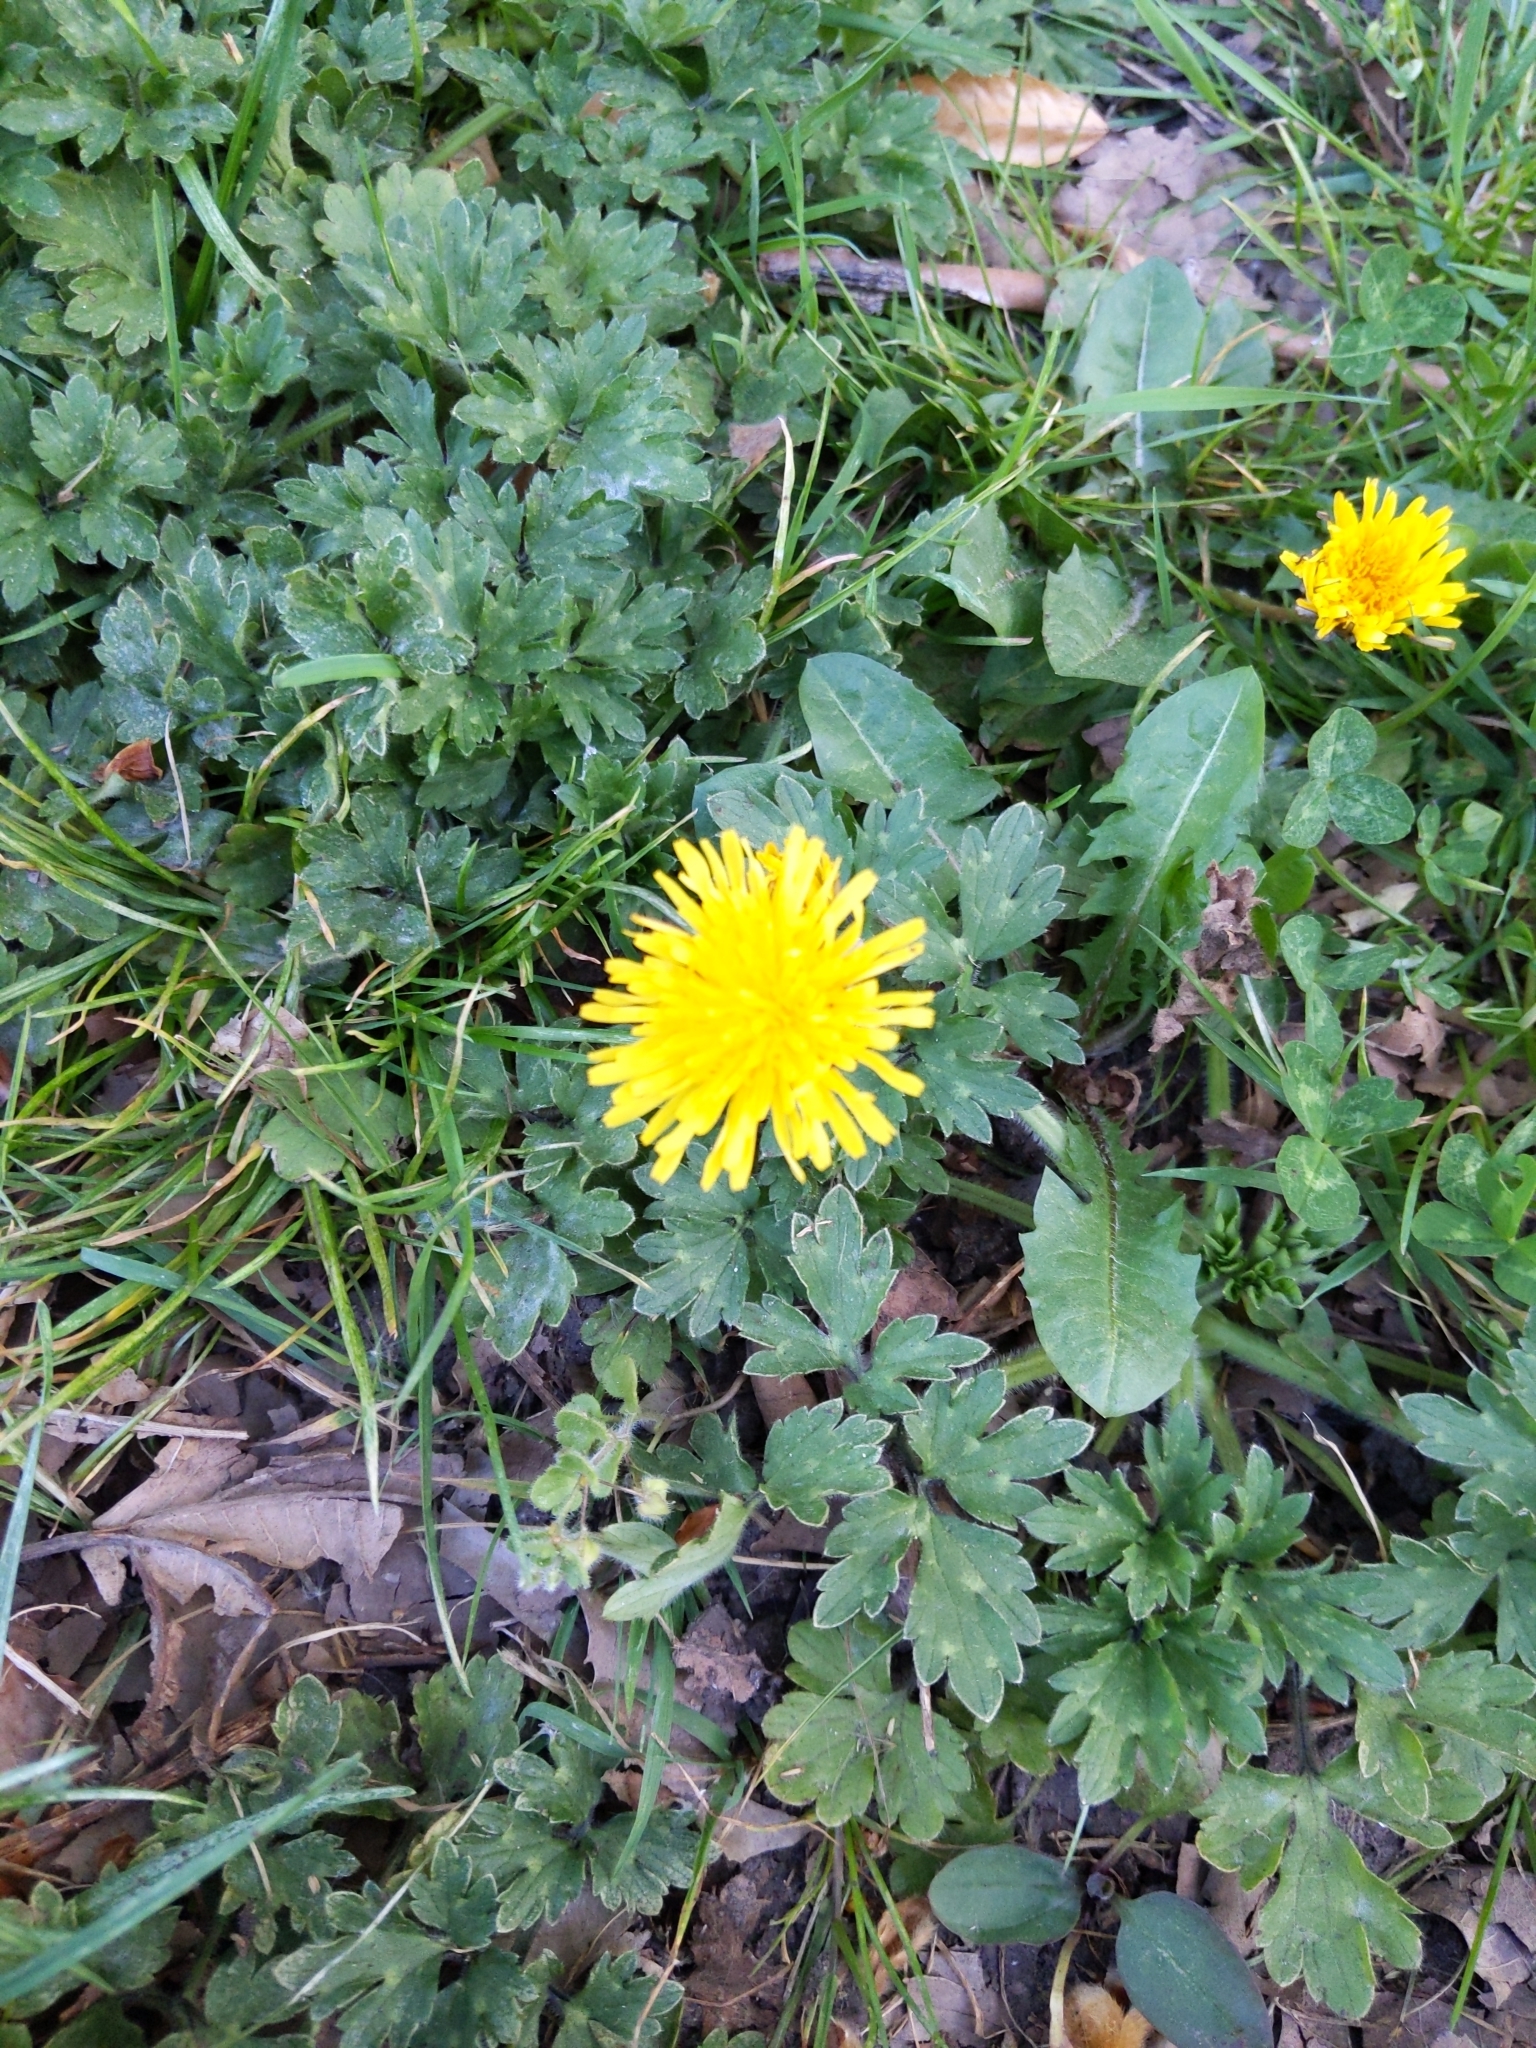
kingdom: Plantae
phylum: Tracheophyta
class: Magnoliopsida
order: Asterales
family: Asteraceae
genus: Taraxacum
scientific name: Taraxacum officinale
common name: Common dandelion
